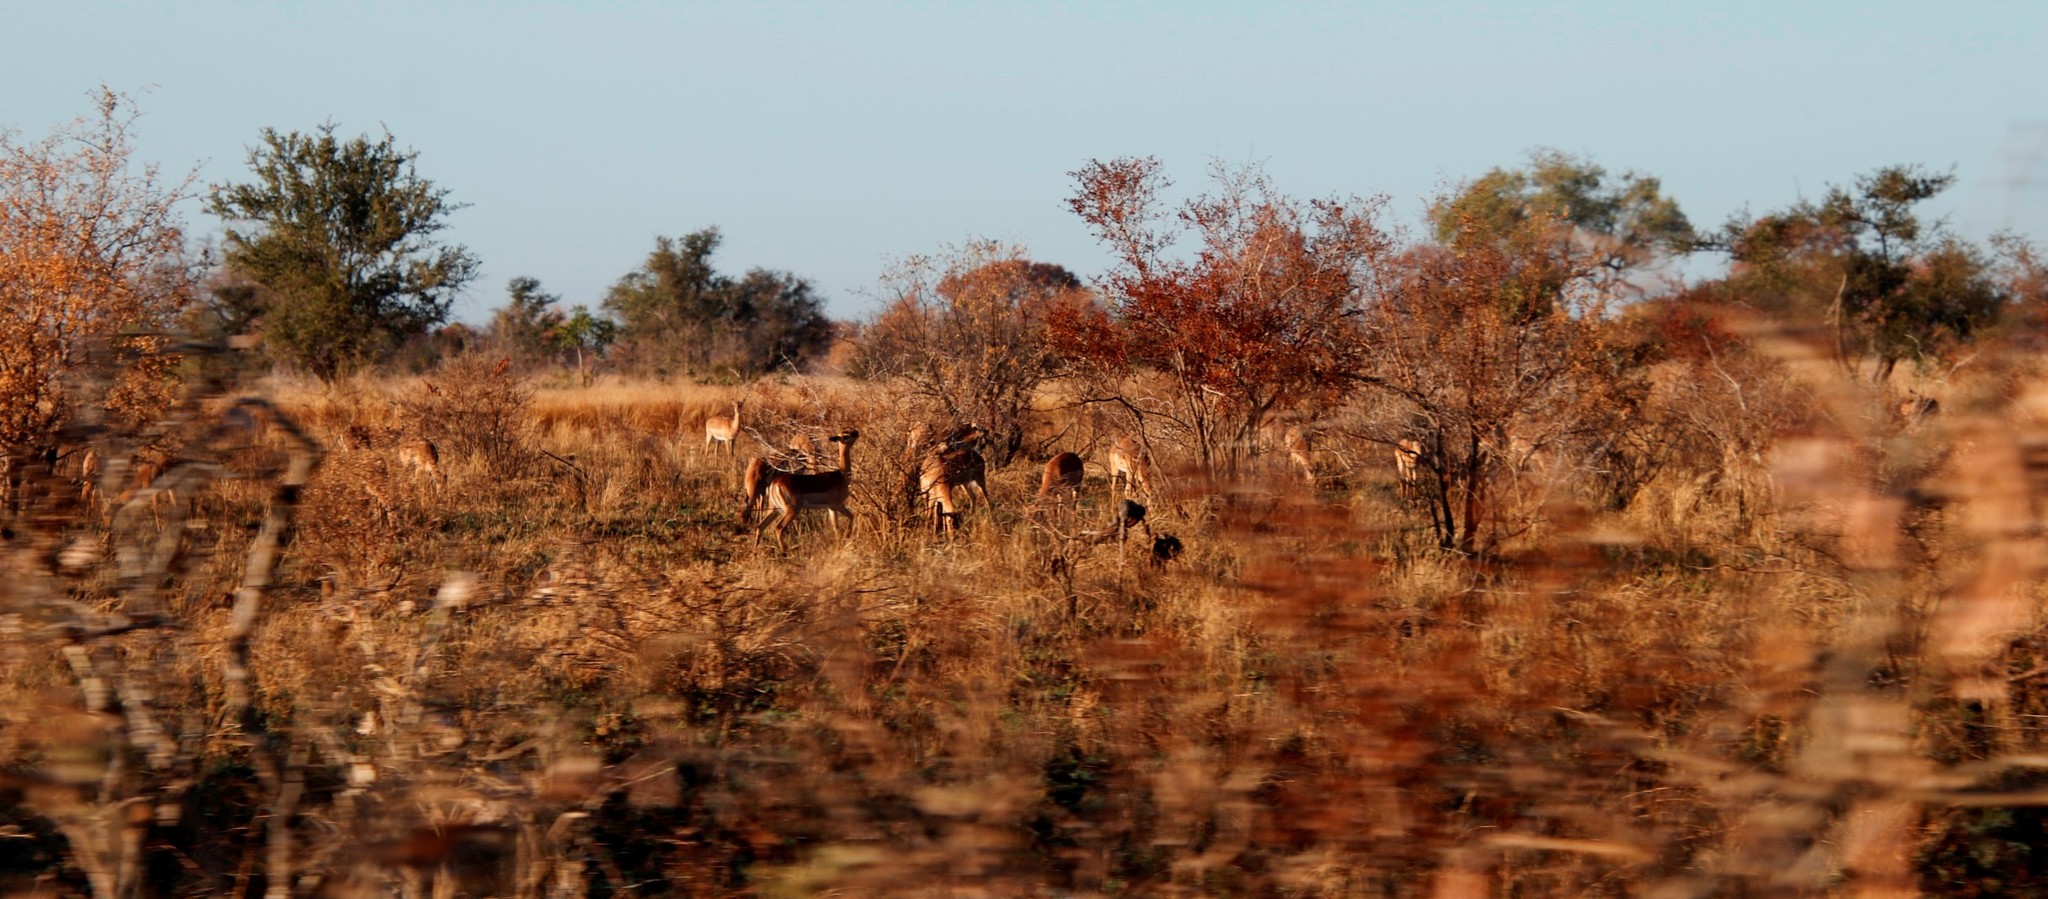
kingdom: Animalia
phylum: Chordata
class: Mammalia
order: Artiodactyla
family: Bovidae
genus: Aepyceros
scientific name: Aepyceros melampus
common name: Impala
